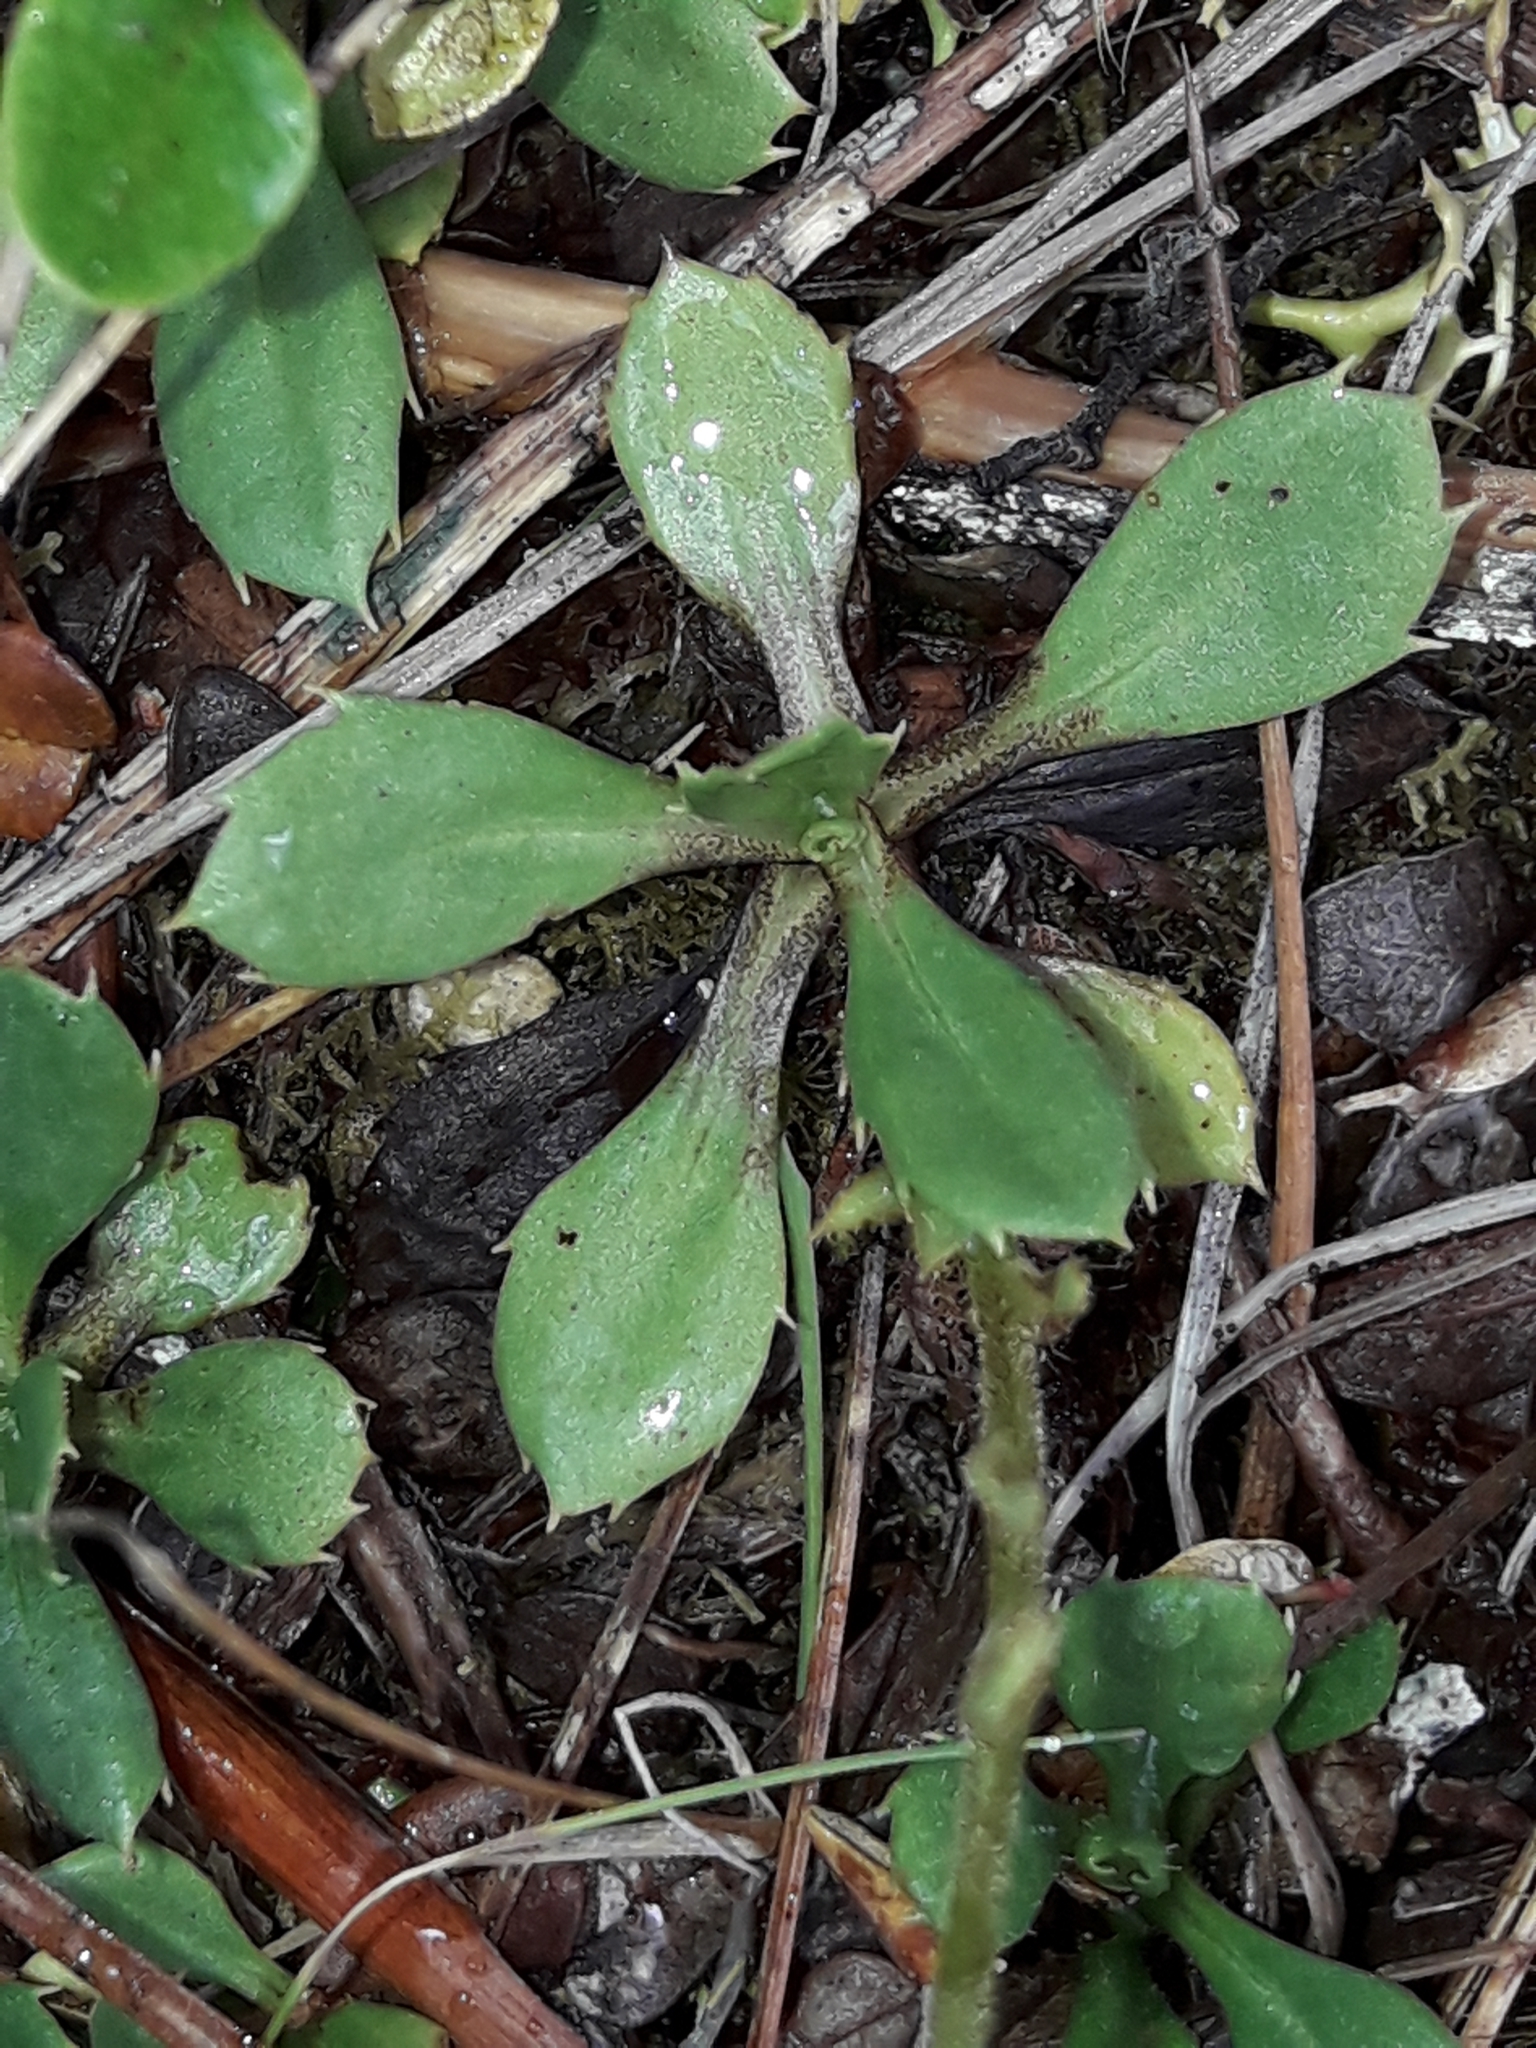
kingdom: Plantae
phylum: Tracheophyta
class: Magnoliopsida
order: Asterales
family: Asteraceae
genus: Celmisia
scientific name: Celmisia glandulosa
